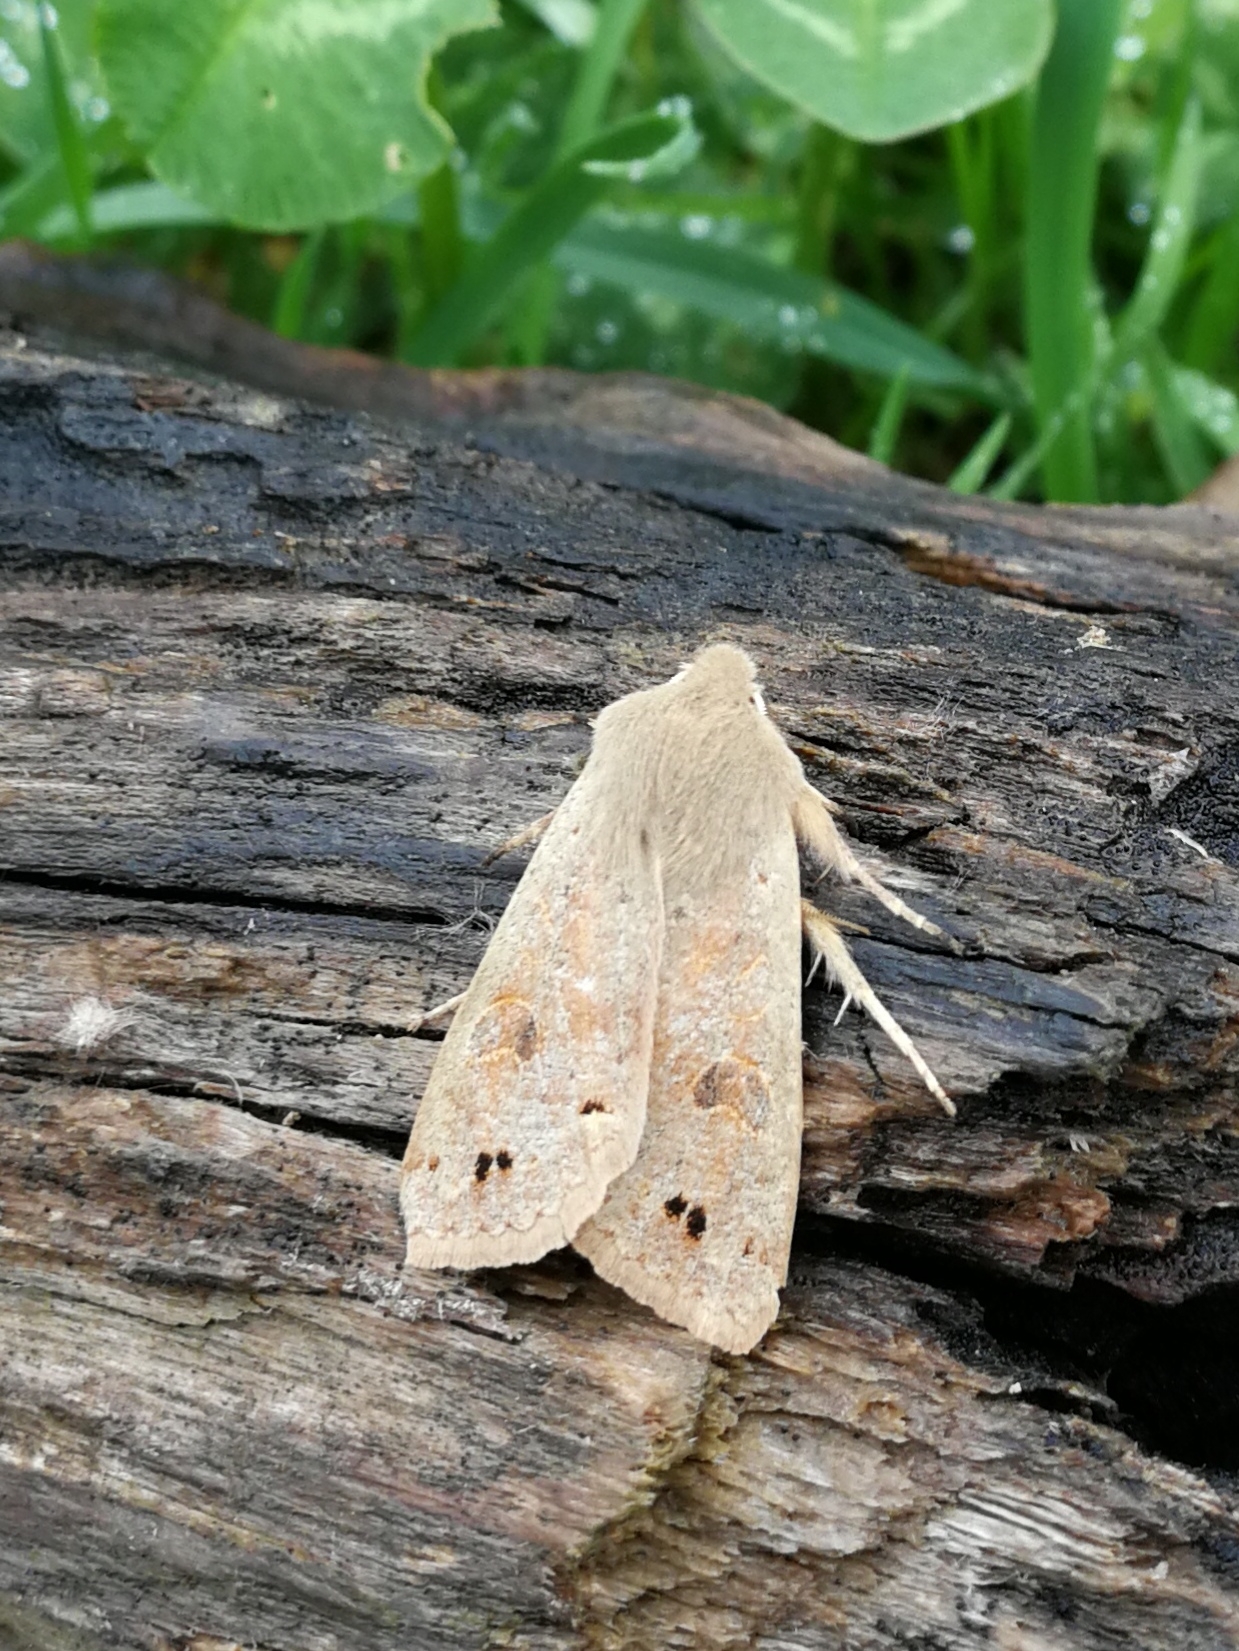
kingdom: Animalia
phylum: Arthropoda
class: Insecta
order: Lepidoptera
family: Noctuidae
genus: Anorthoa
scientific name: Anorthoa munda
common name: Twin-spotted quaker
